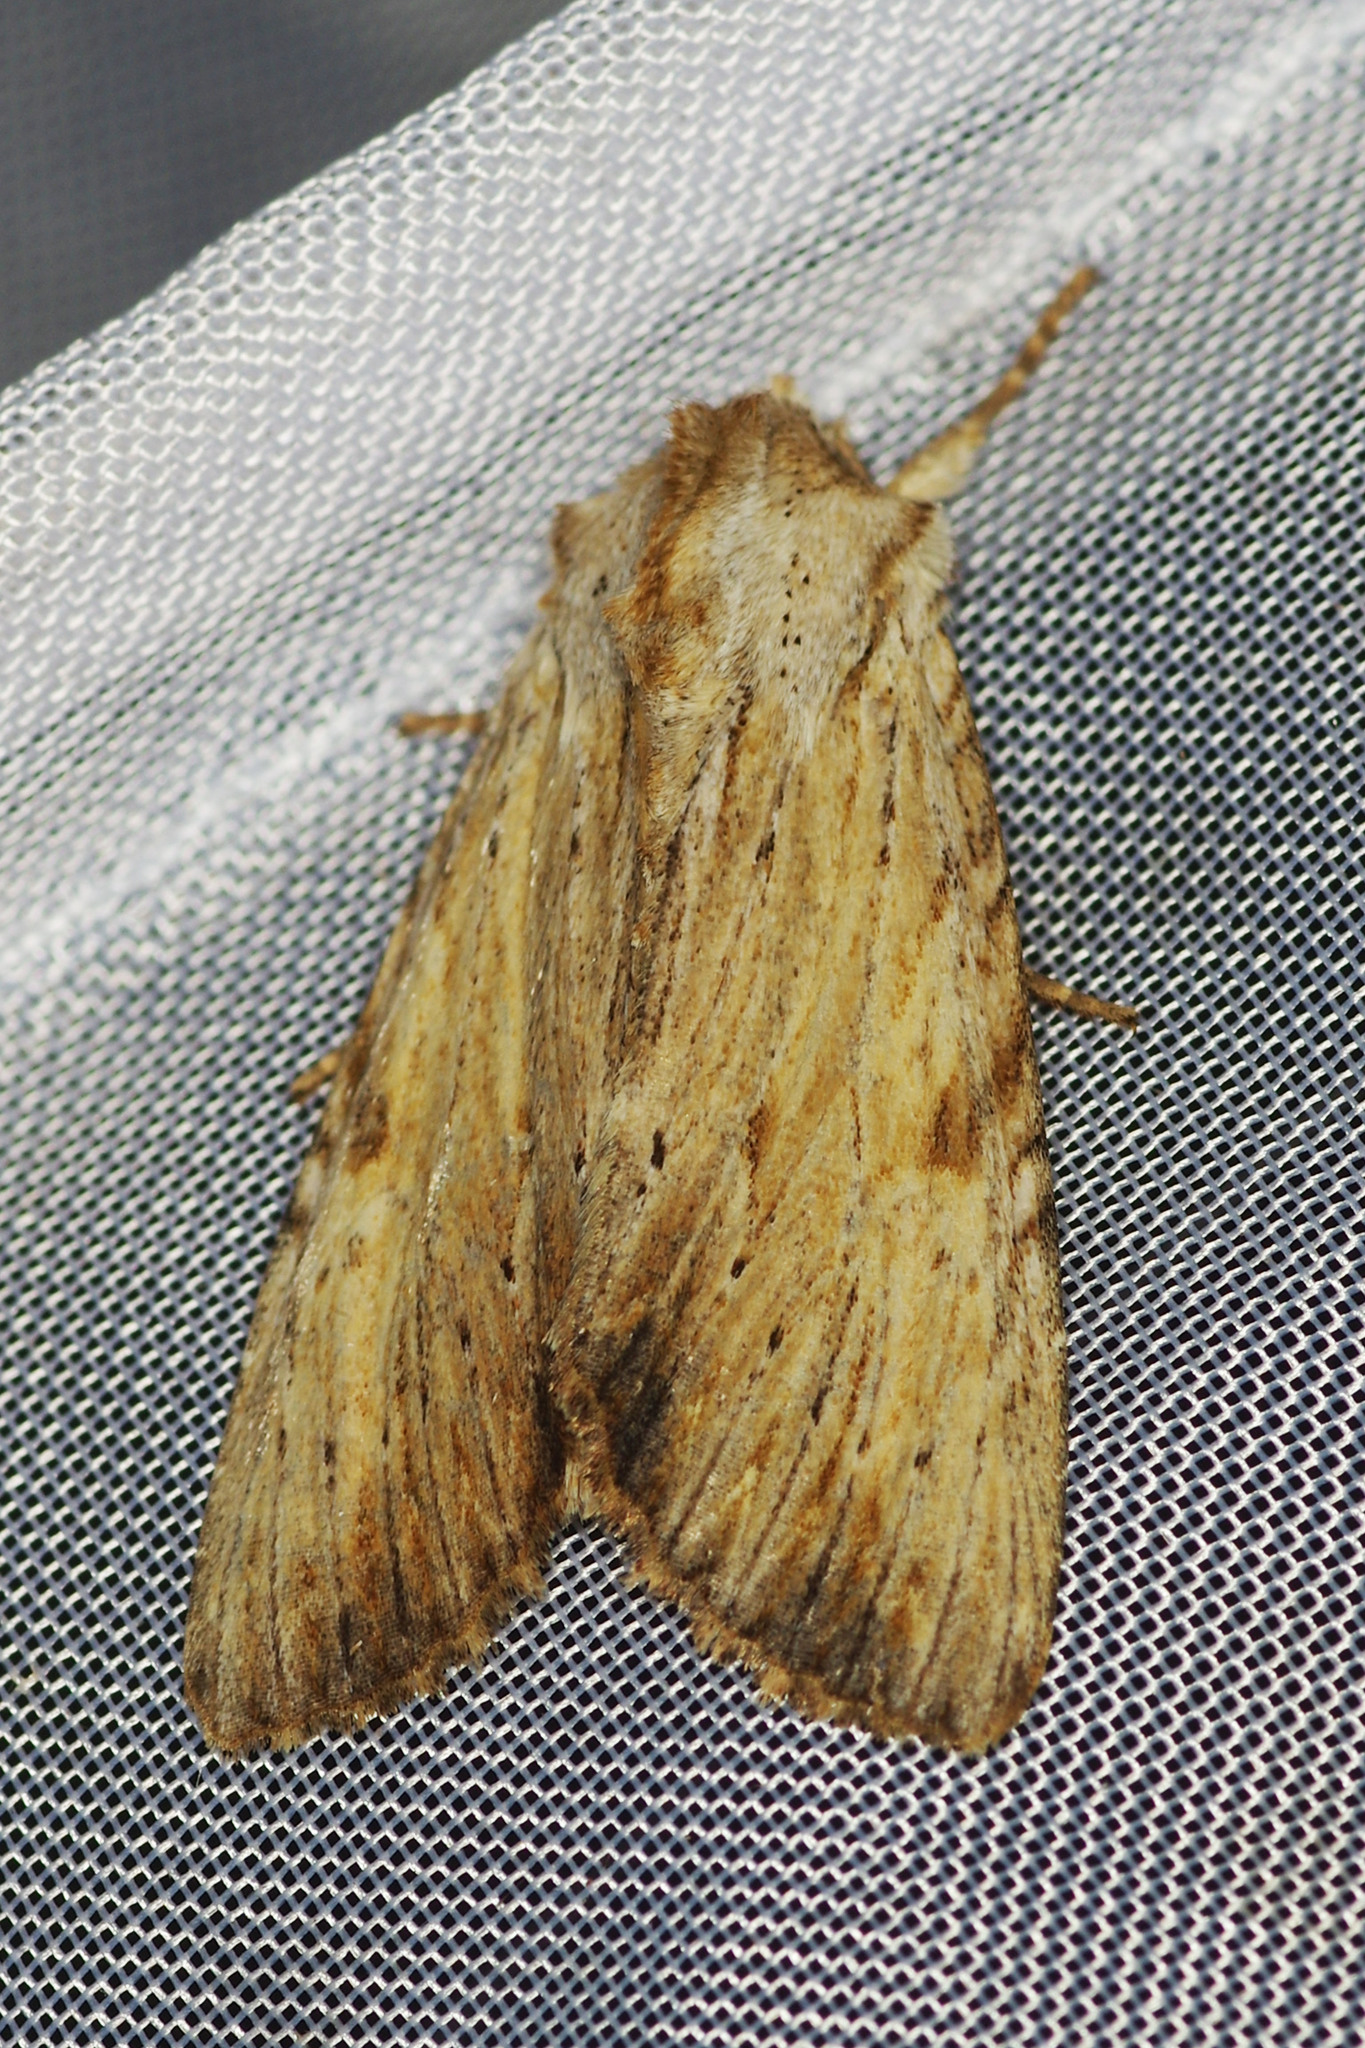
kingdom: Animalia
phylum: Arthropoda
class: Insecta
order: Lepidoptera
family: Noctuidae
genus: Apamea
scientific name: Apamea lithoxylaea
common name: Light arches
